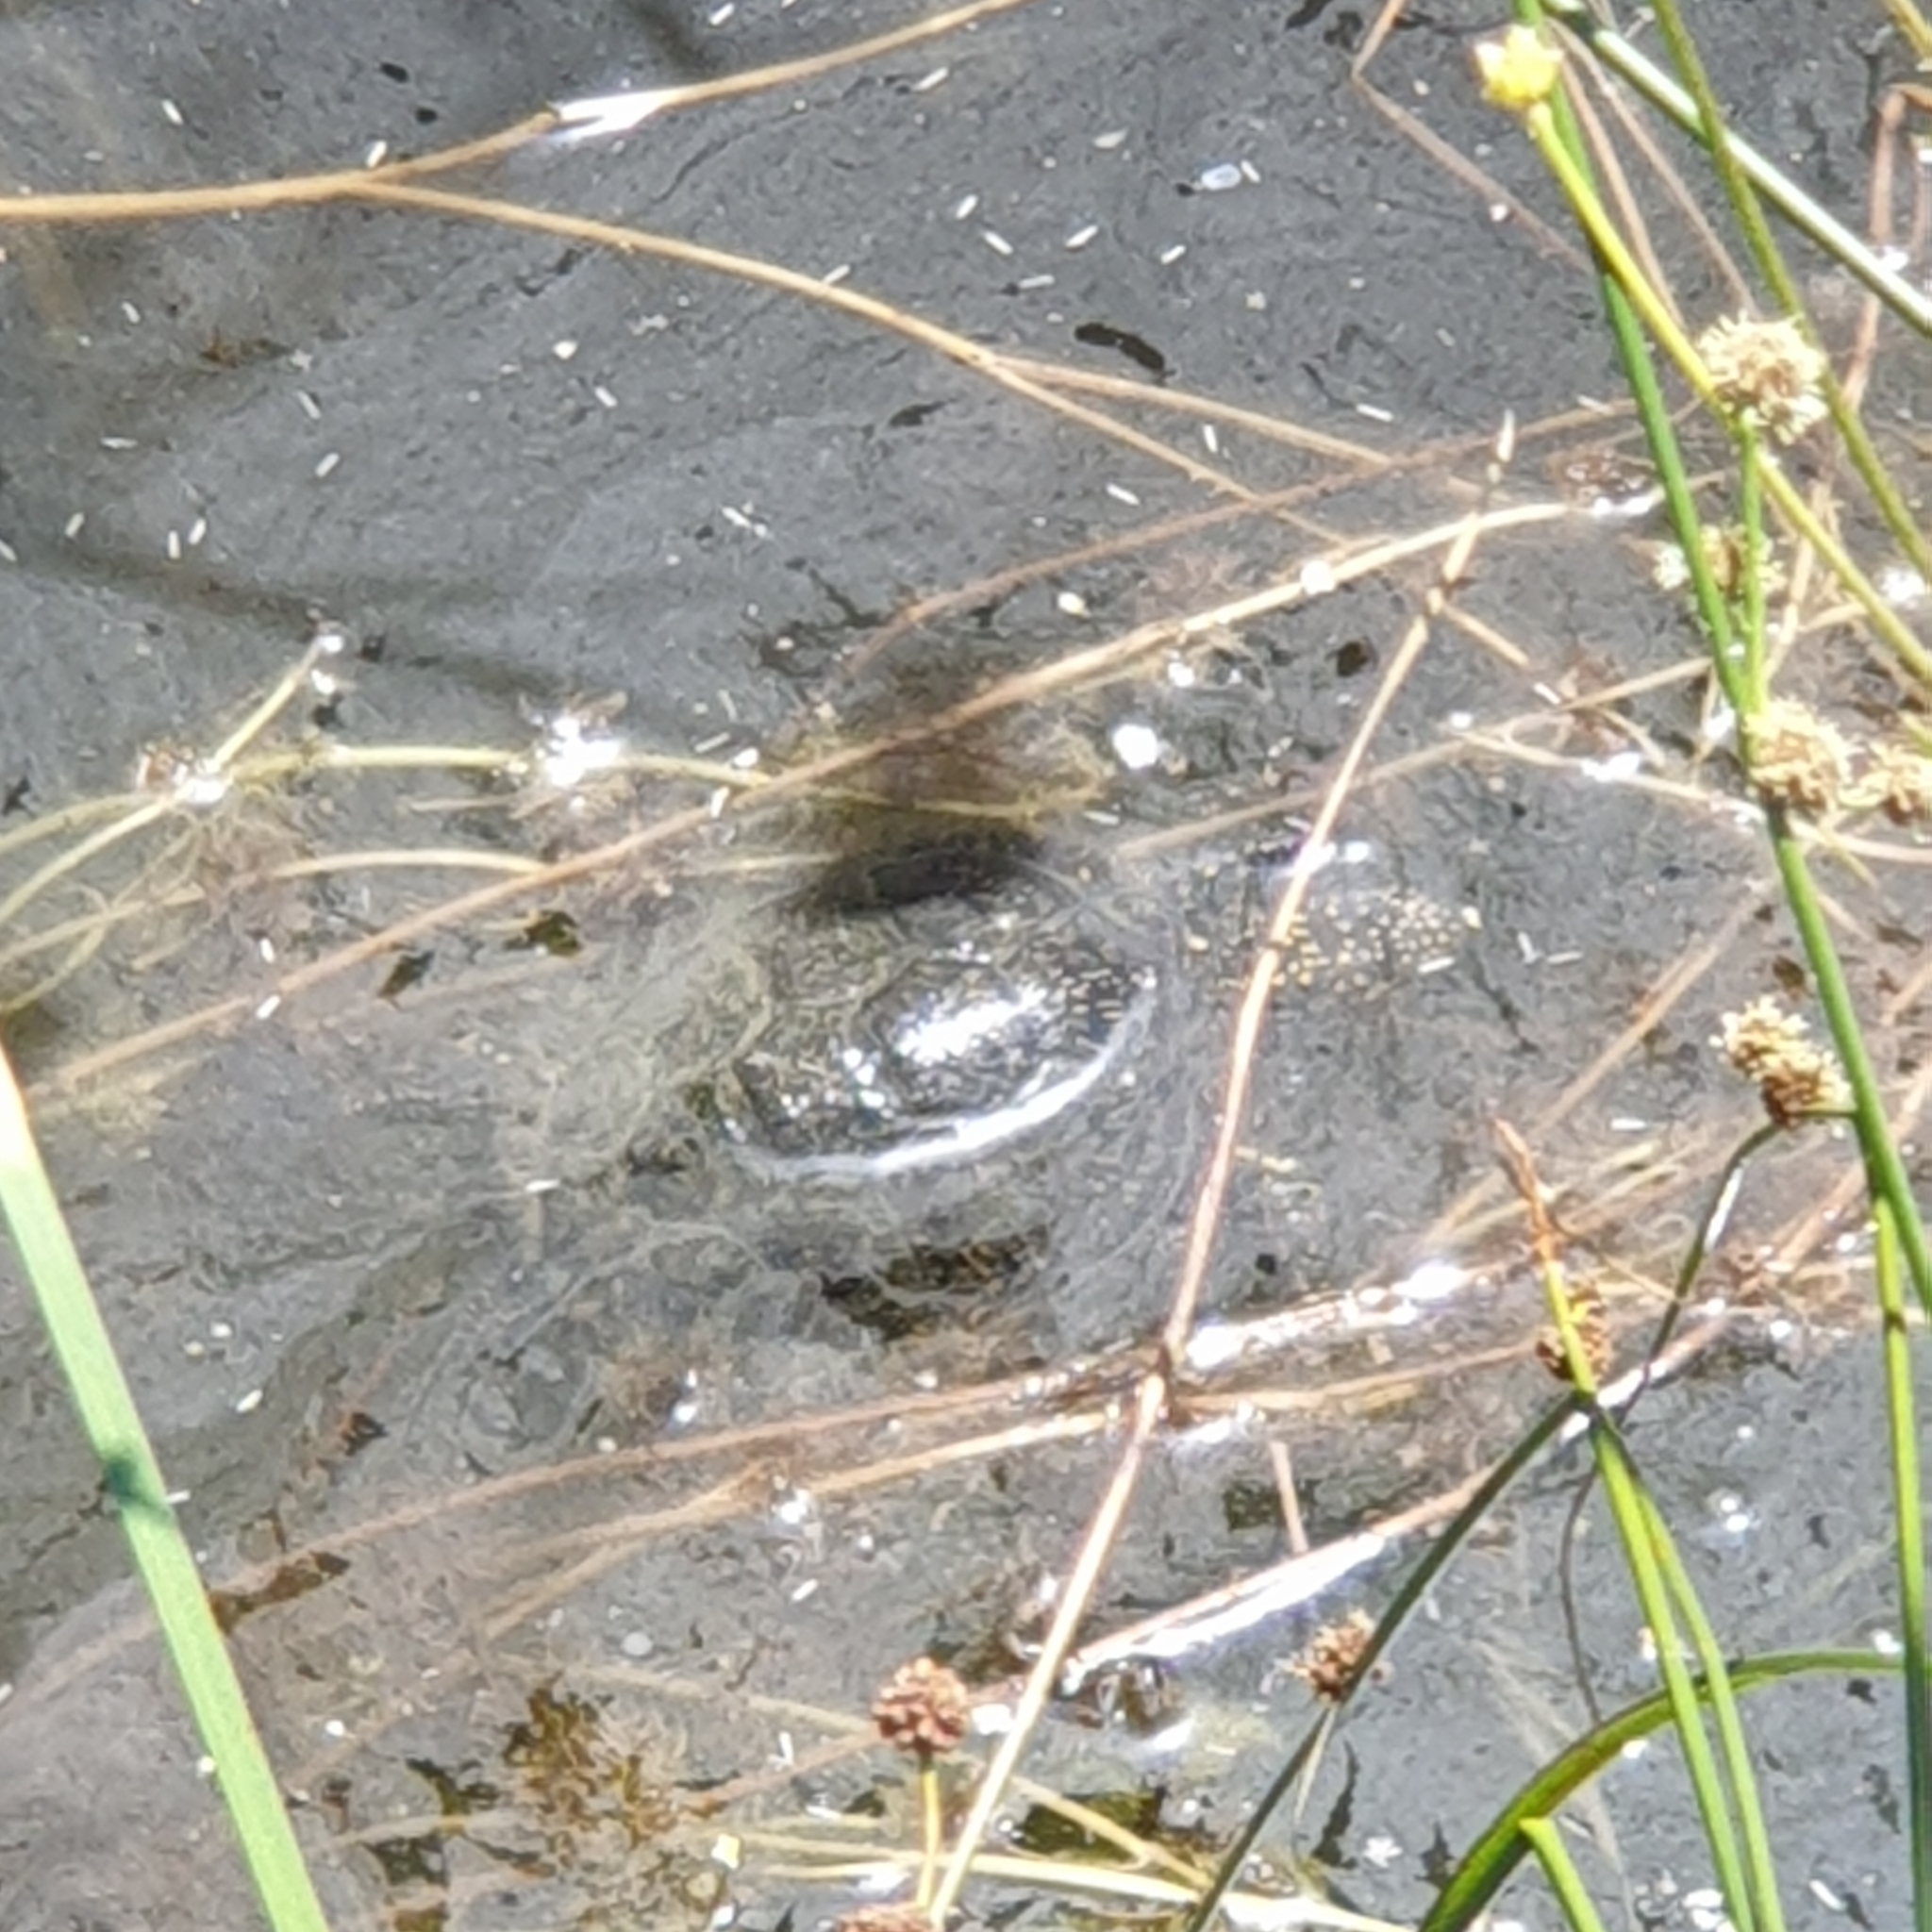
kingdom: Animalia
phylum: Chordata
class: Testudines
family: Emydidae
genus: Emys
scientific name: Emys orbicularis
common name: European pond turtle
